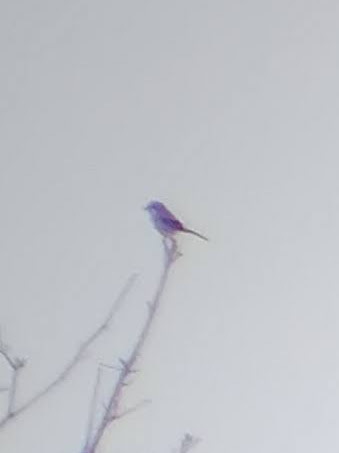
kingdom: Animalia
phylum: Chordata
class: Aves
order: Passeriformes
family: Laniidae
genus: Lanius
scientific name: Lanius borealis
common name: Northern shrike
